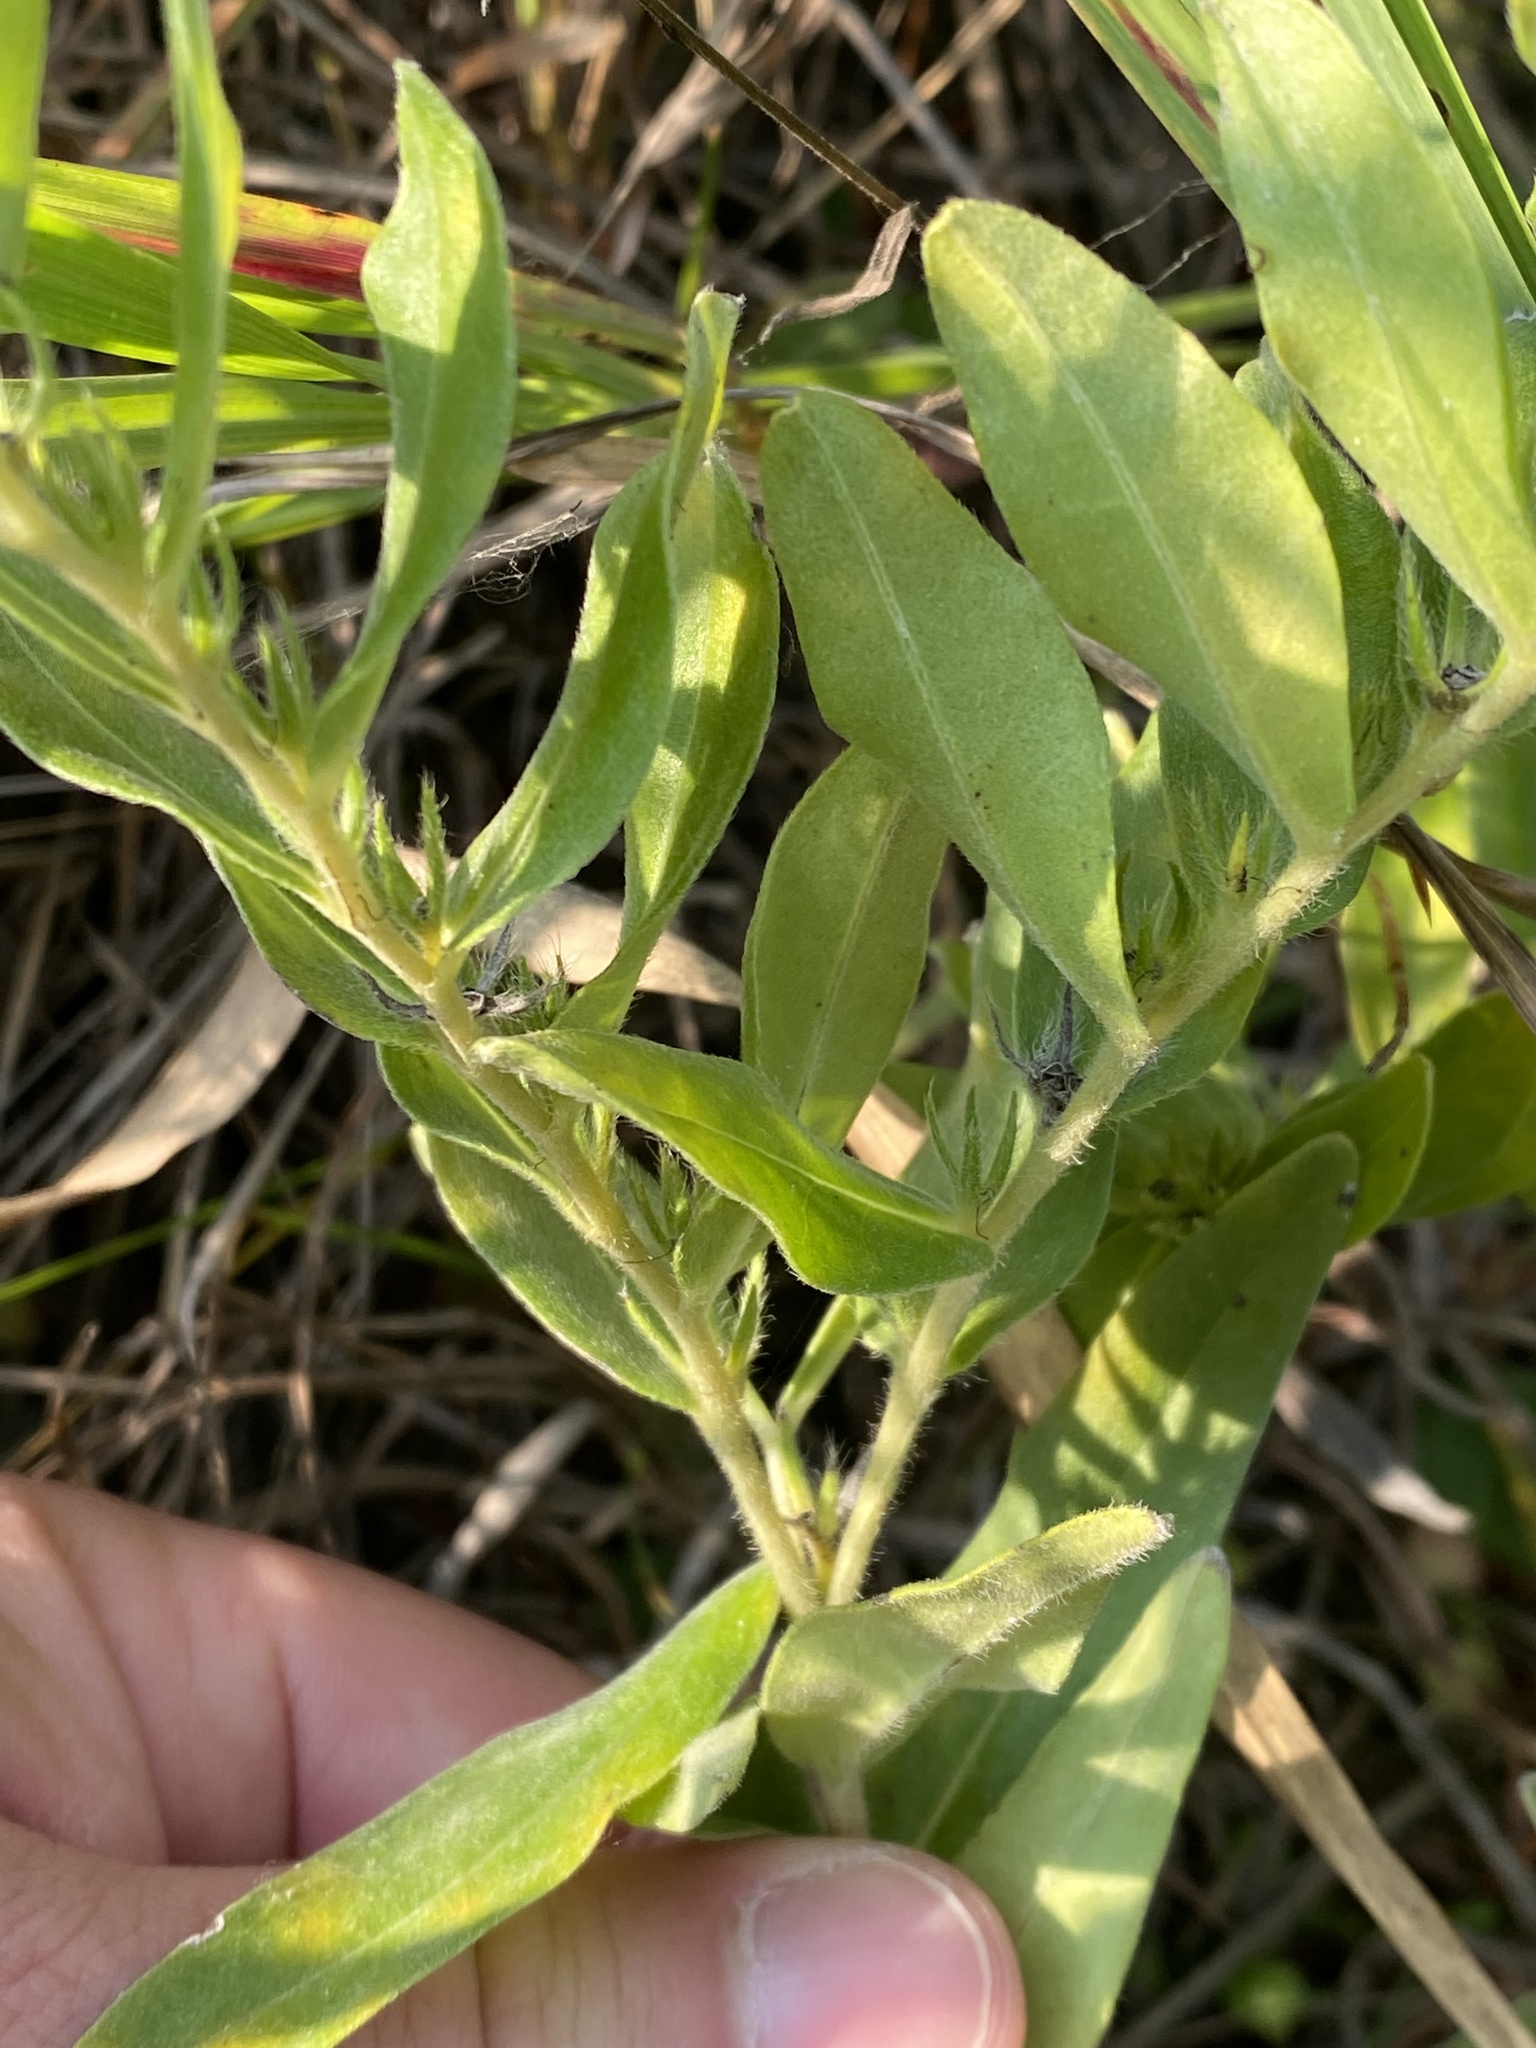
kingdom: Plantae
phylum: Tracheophyta
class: Magnoliopsida
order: Boraginales
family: Boraginaceae
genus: Lithospermum
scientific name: Lithospermum canescens
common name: Hoary puccoon
